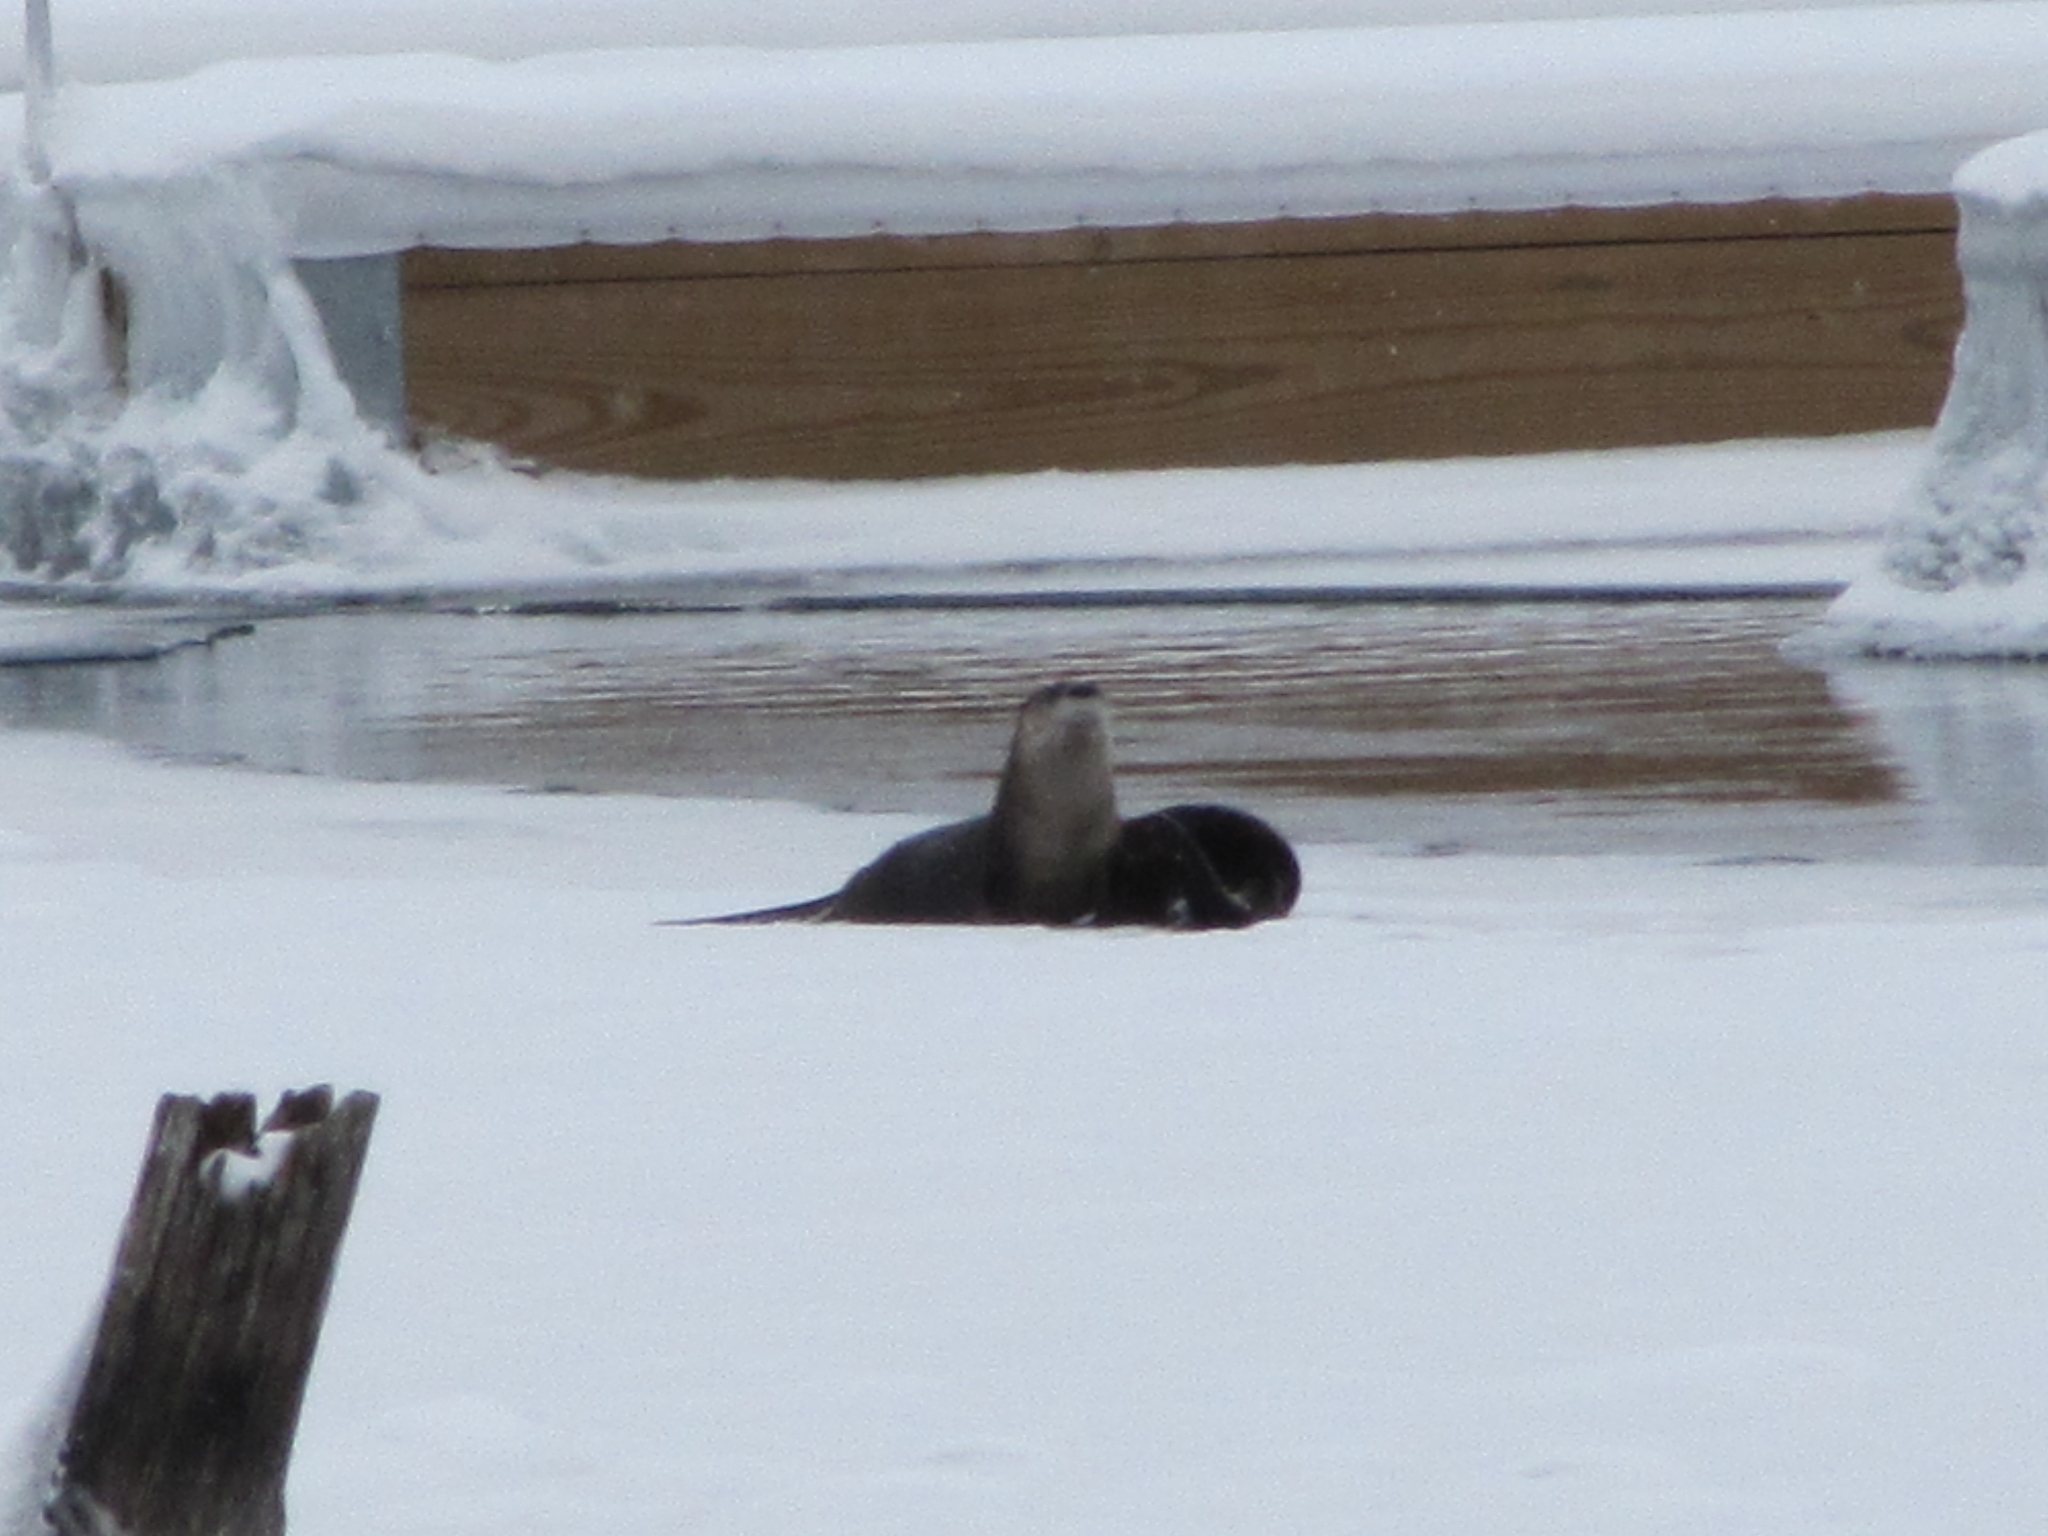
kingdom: Animalia
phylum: Chordata
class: Mammalia
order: Carnivora
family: Mustelidae
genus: Lontra
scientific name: Lontra canadensis
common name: North american river otter
